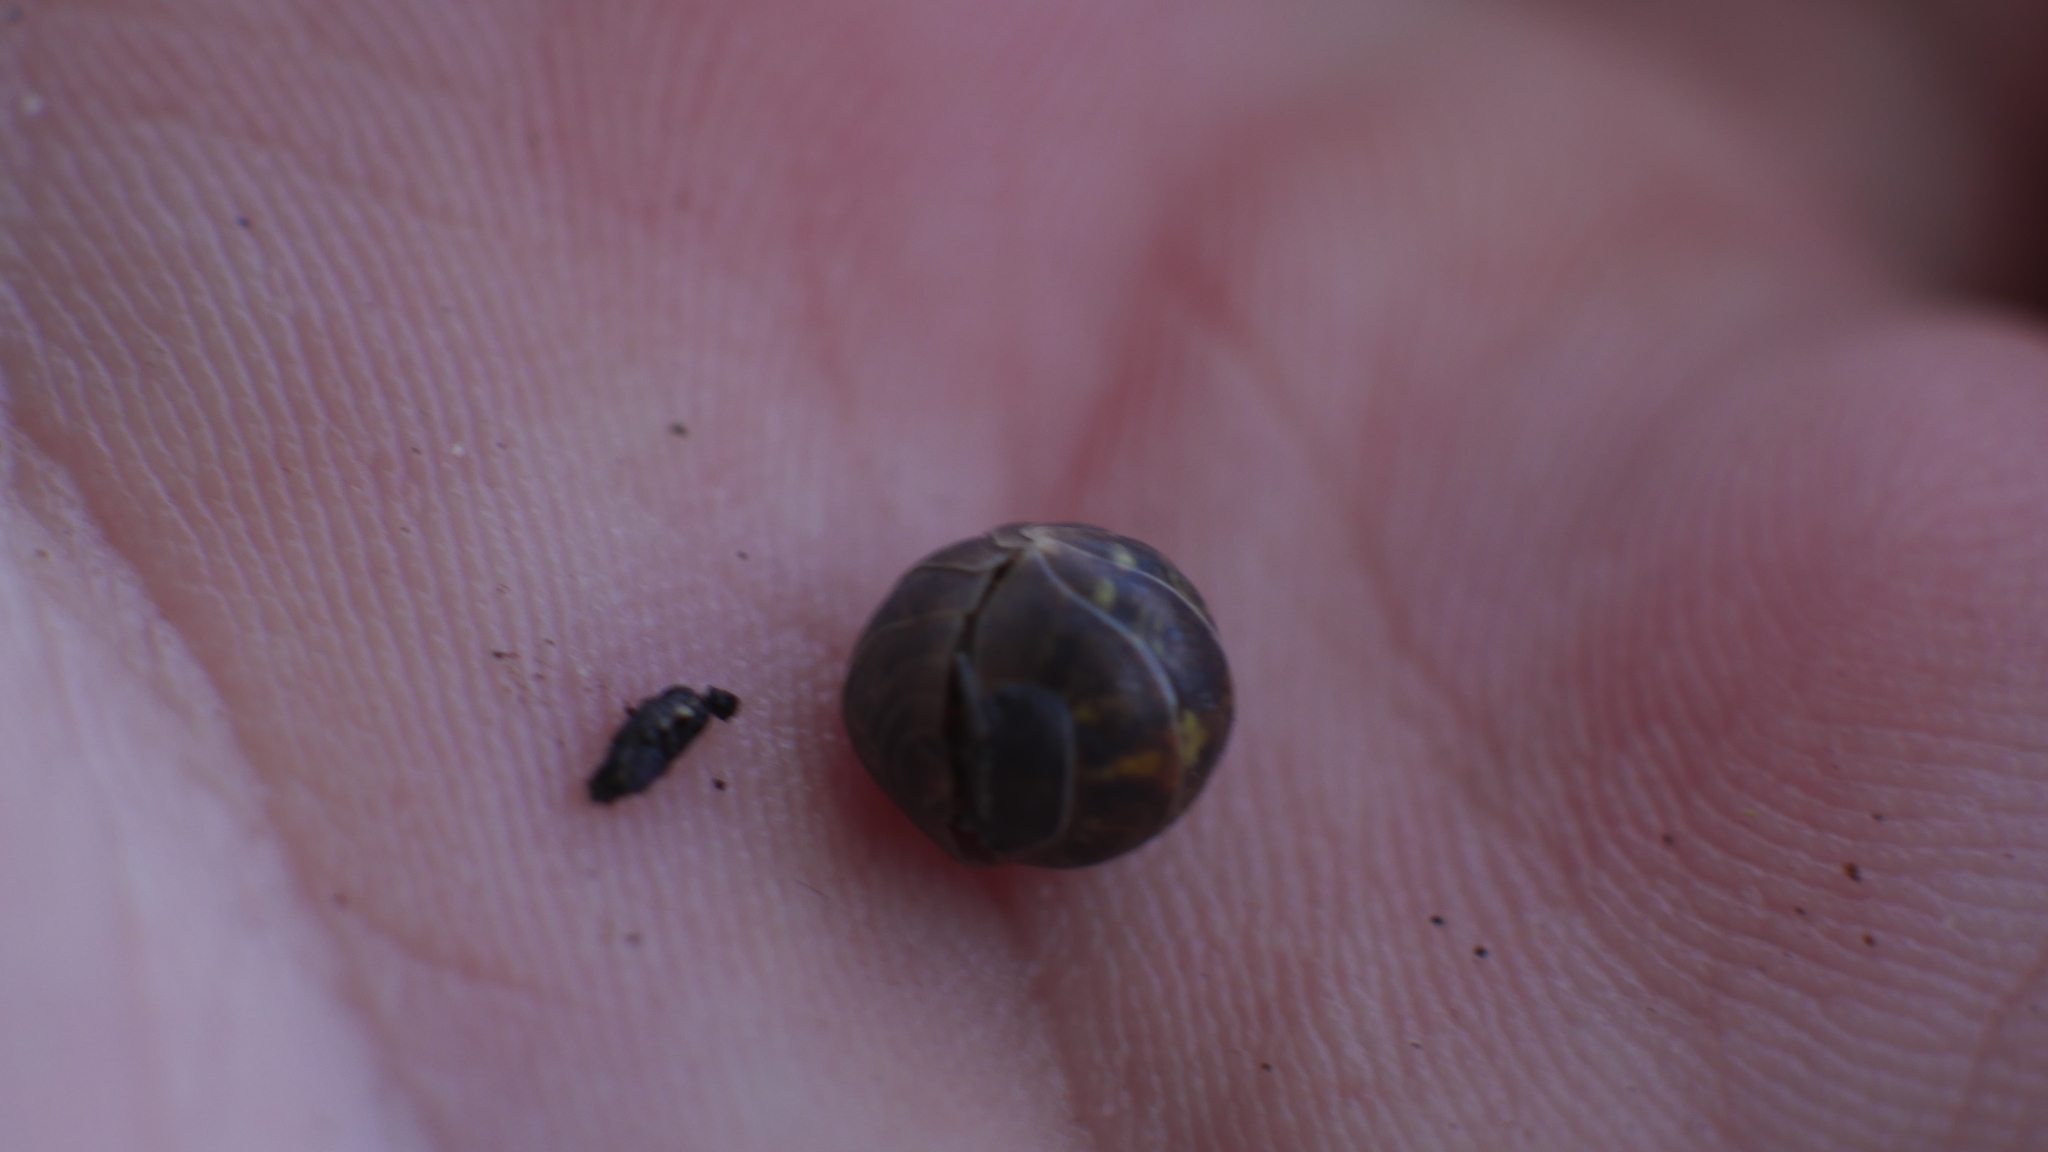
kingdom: Animalia
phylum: Arthropoda
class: Malacostraca
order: Isopoda
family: Armadillidiidae
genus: Armadillidium
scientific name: Armadillidium vulgare
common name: Common pill woodlouse
